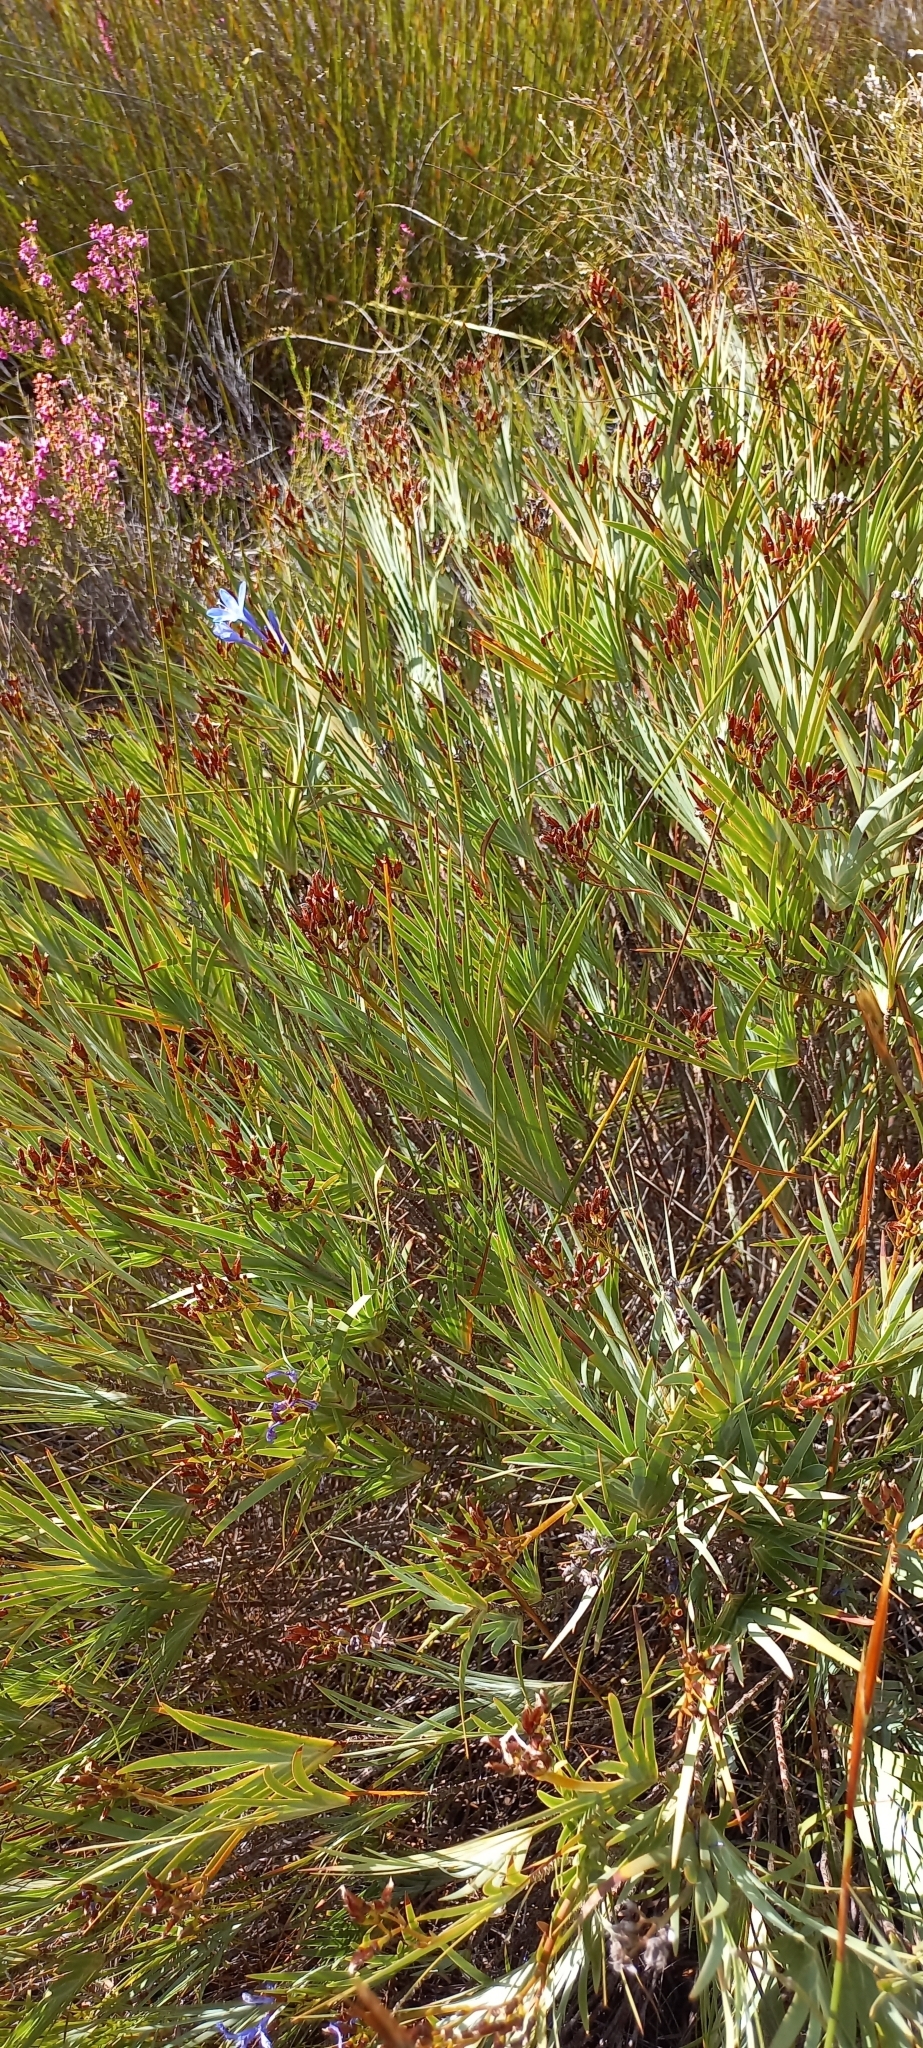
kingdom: Plantae
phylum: Tracheophyta
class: Liliopsida
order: Asparagales
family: Iridaceae
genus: Nivenia
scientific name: Nivenia stokoei
